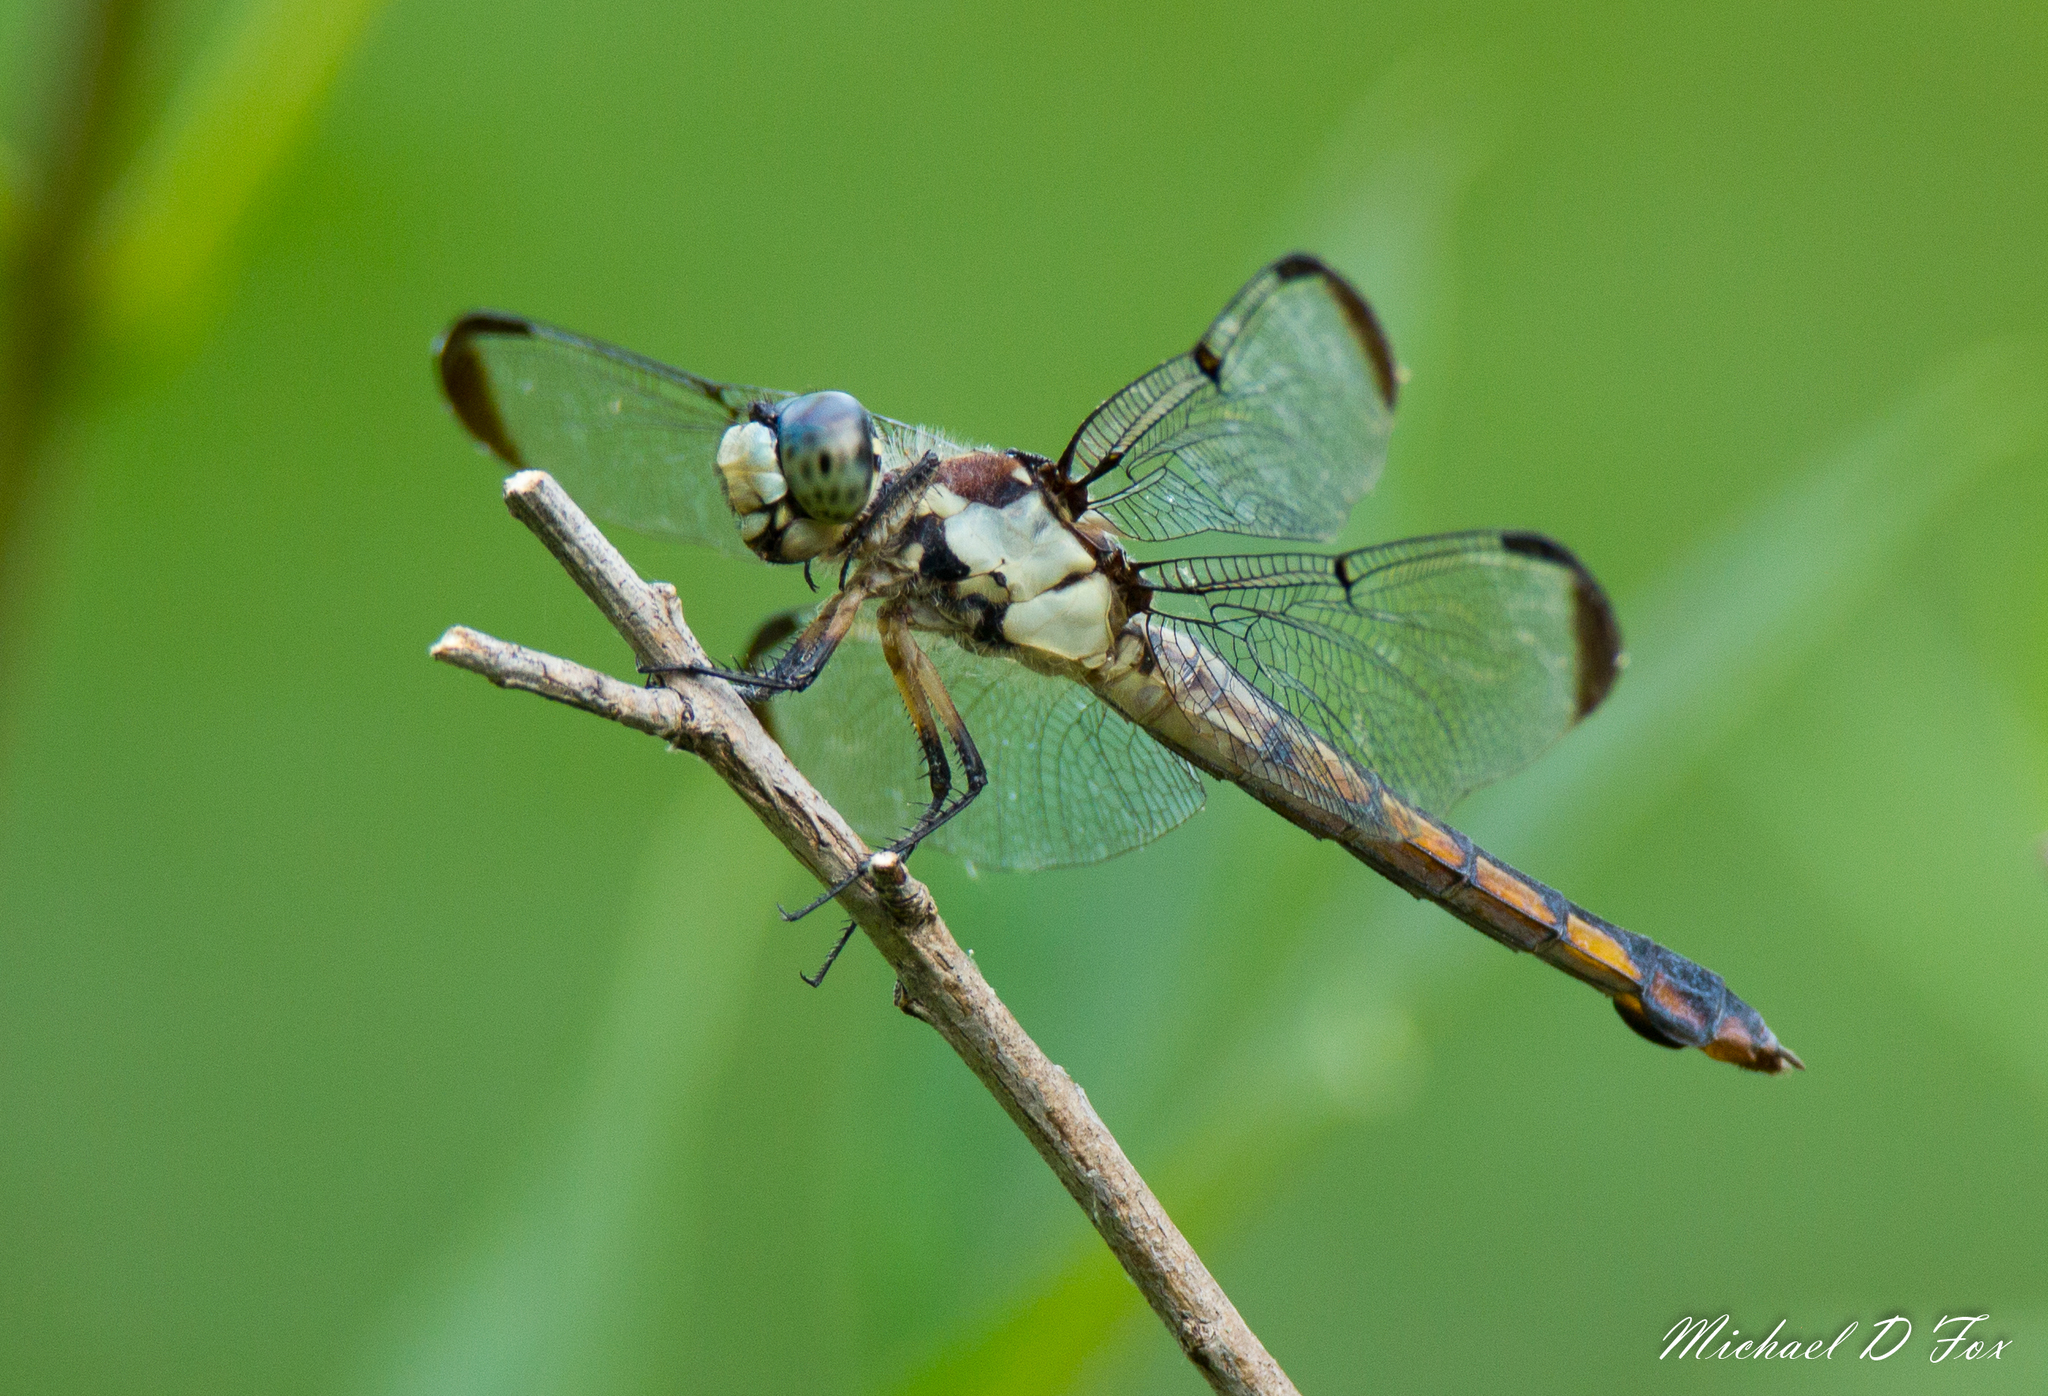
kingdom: Animalia
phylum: Arthropoda
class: Insecta
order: Odonata
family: Libellulidae
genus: Libellula
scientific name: Libellula vibrans
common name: Great blue skimmer
